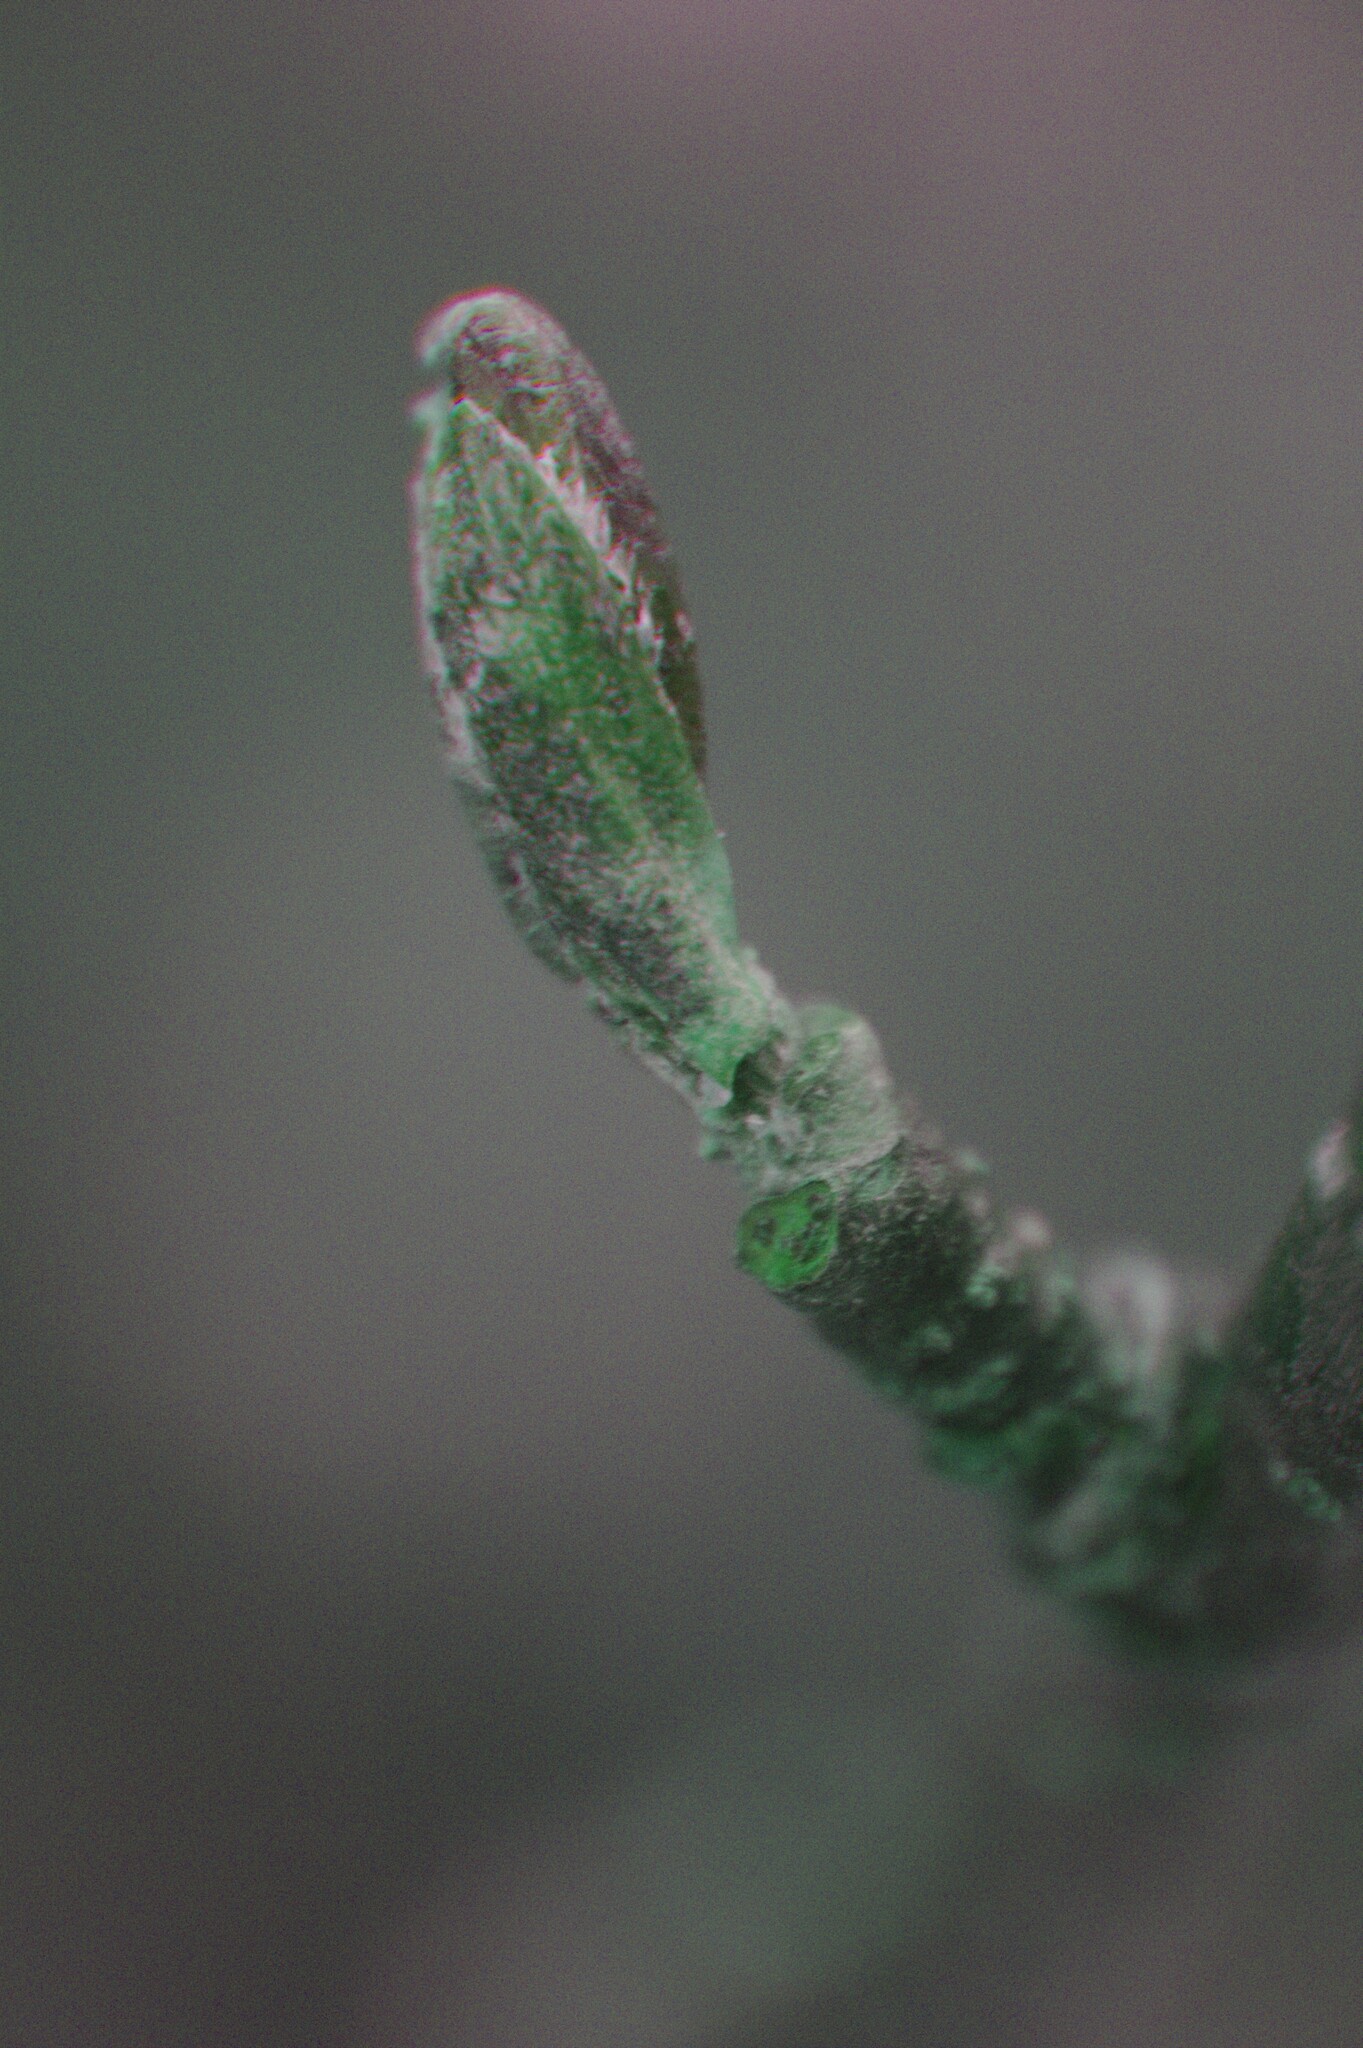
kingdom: Plantae
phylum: Tracheophyta
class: Magnoliopsida
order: Fagales
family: Betulaceae
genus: Alnus
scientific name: Alnus incana
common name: Grey alder
